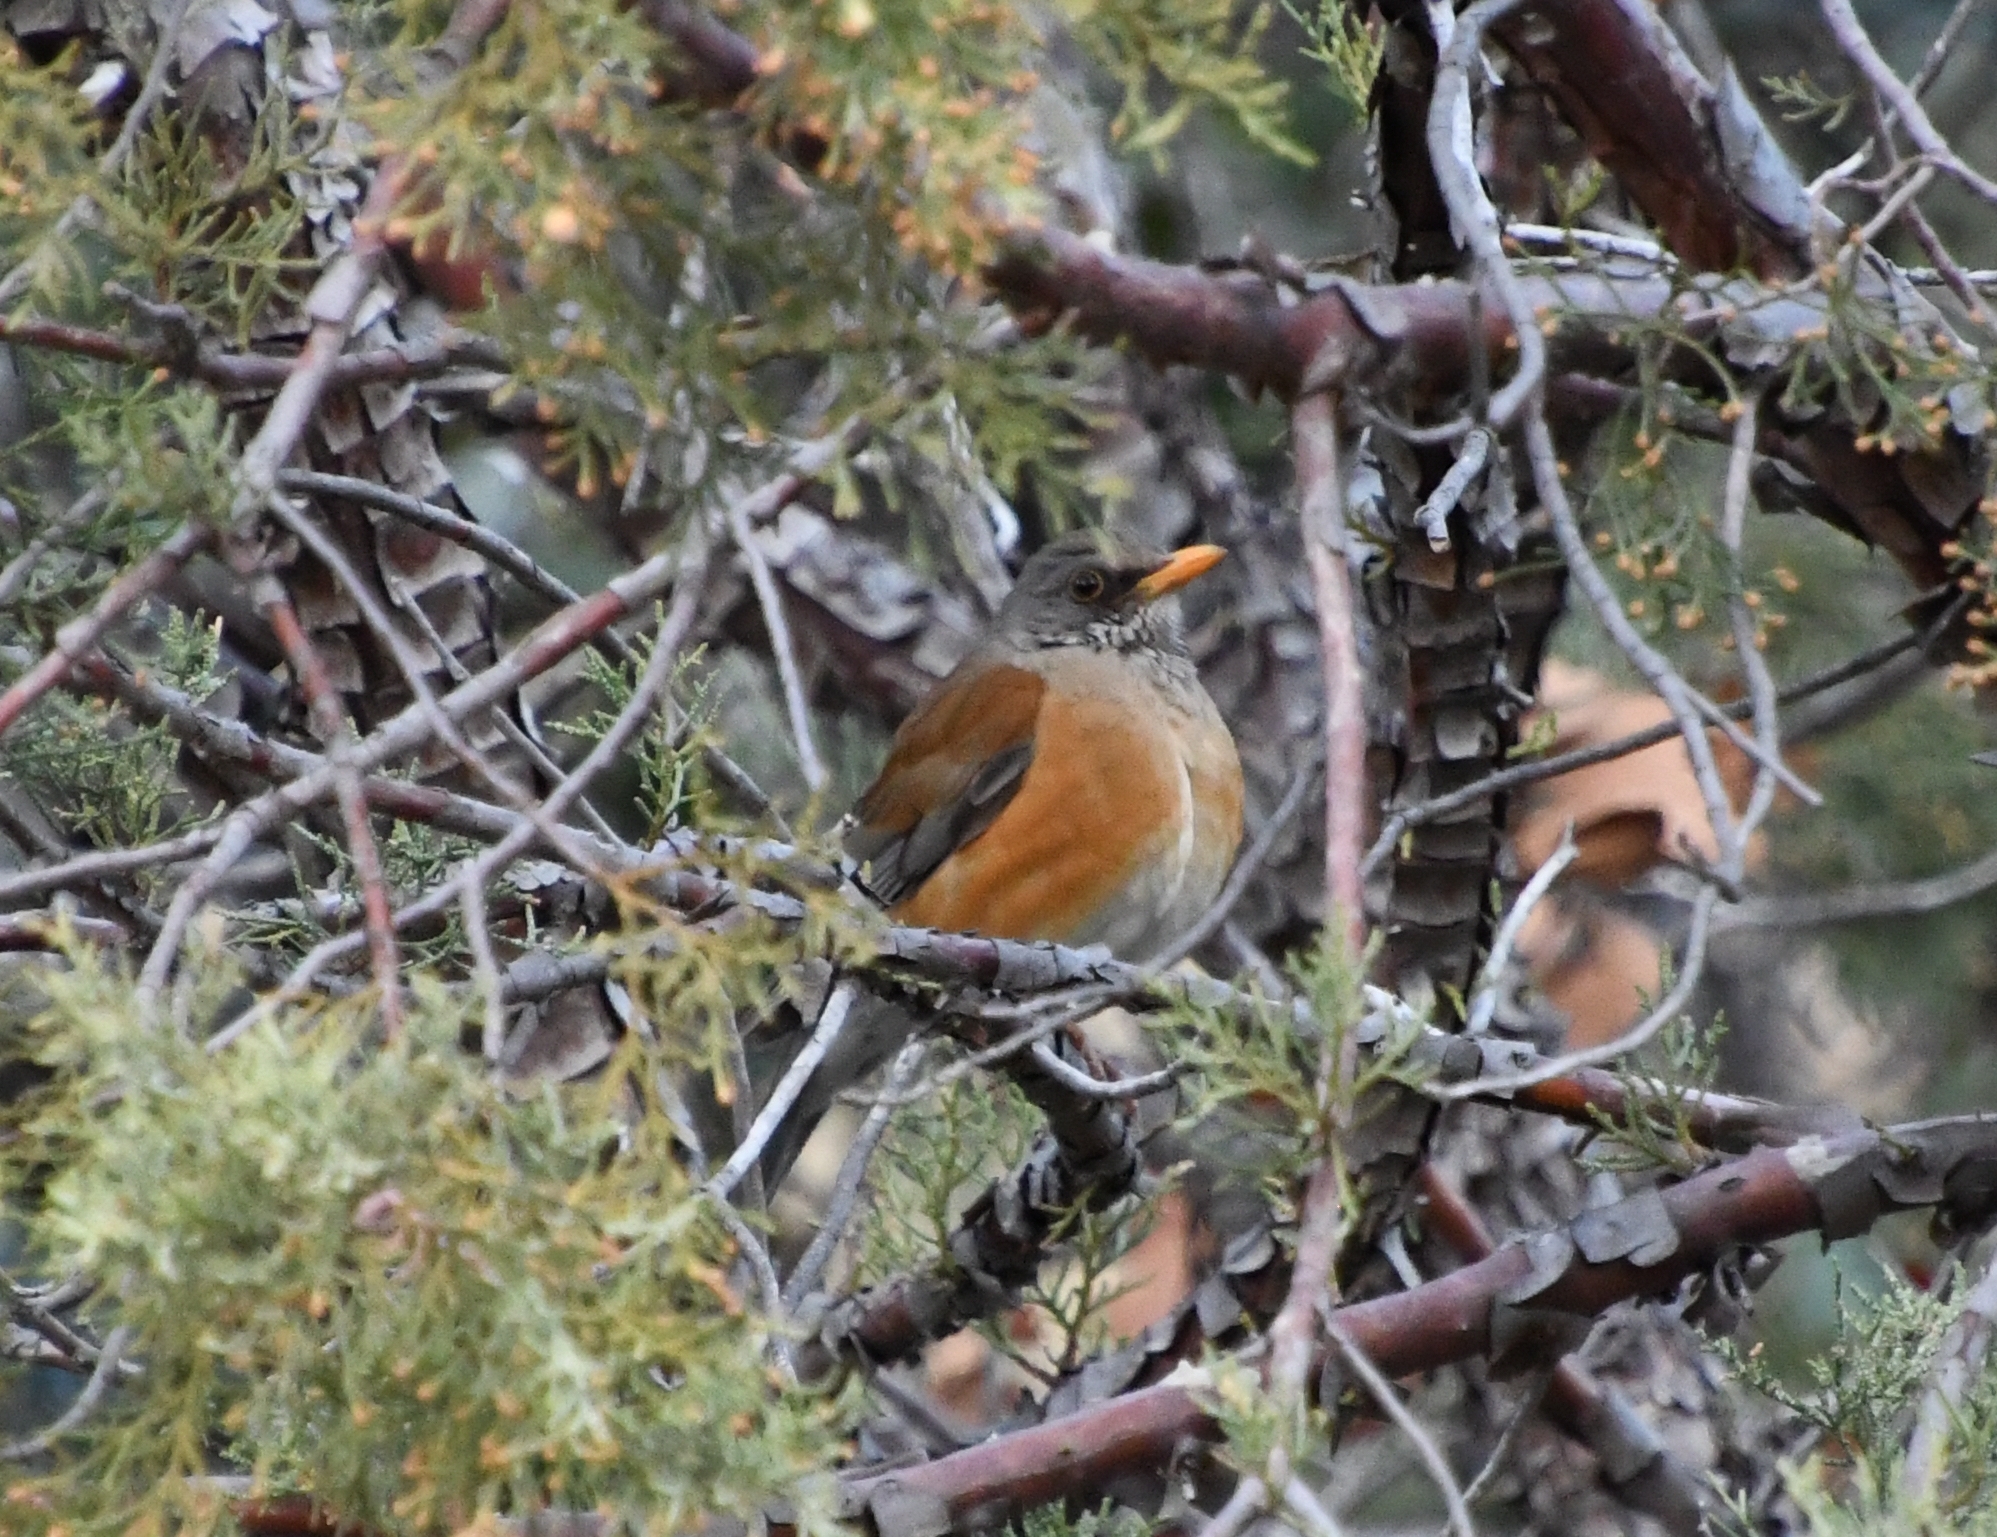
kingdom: Animalia
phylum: Chordata
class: Aves
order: Passeriformes
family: Turdidae
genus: Turdus
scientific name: Turdus rufopalliatus
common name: Rufous-backed robin
